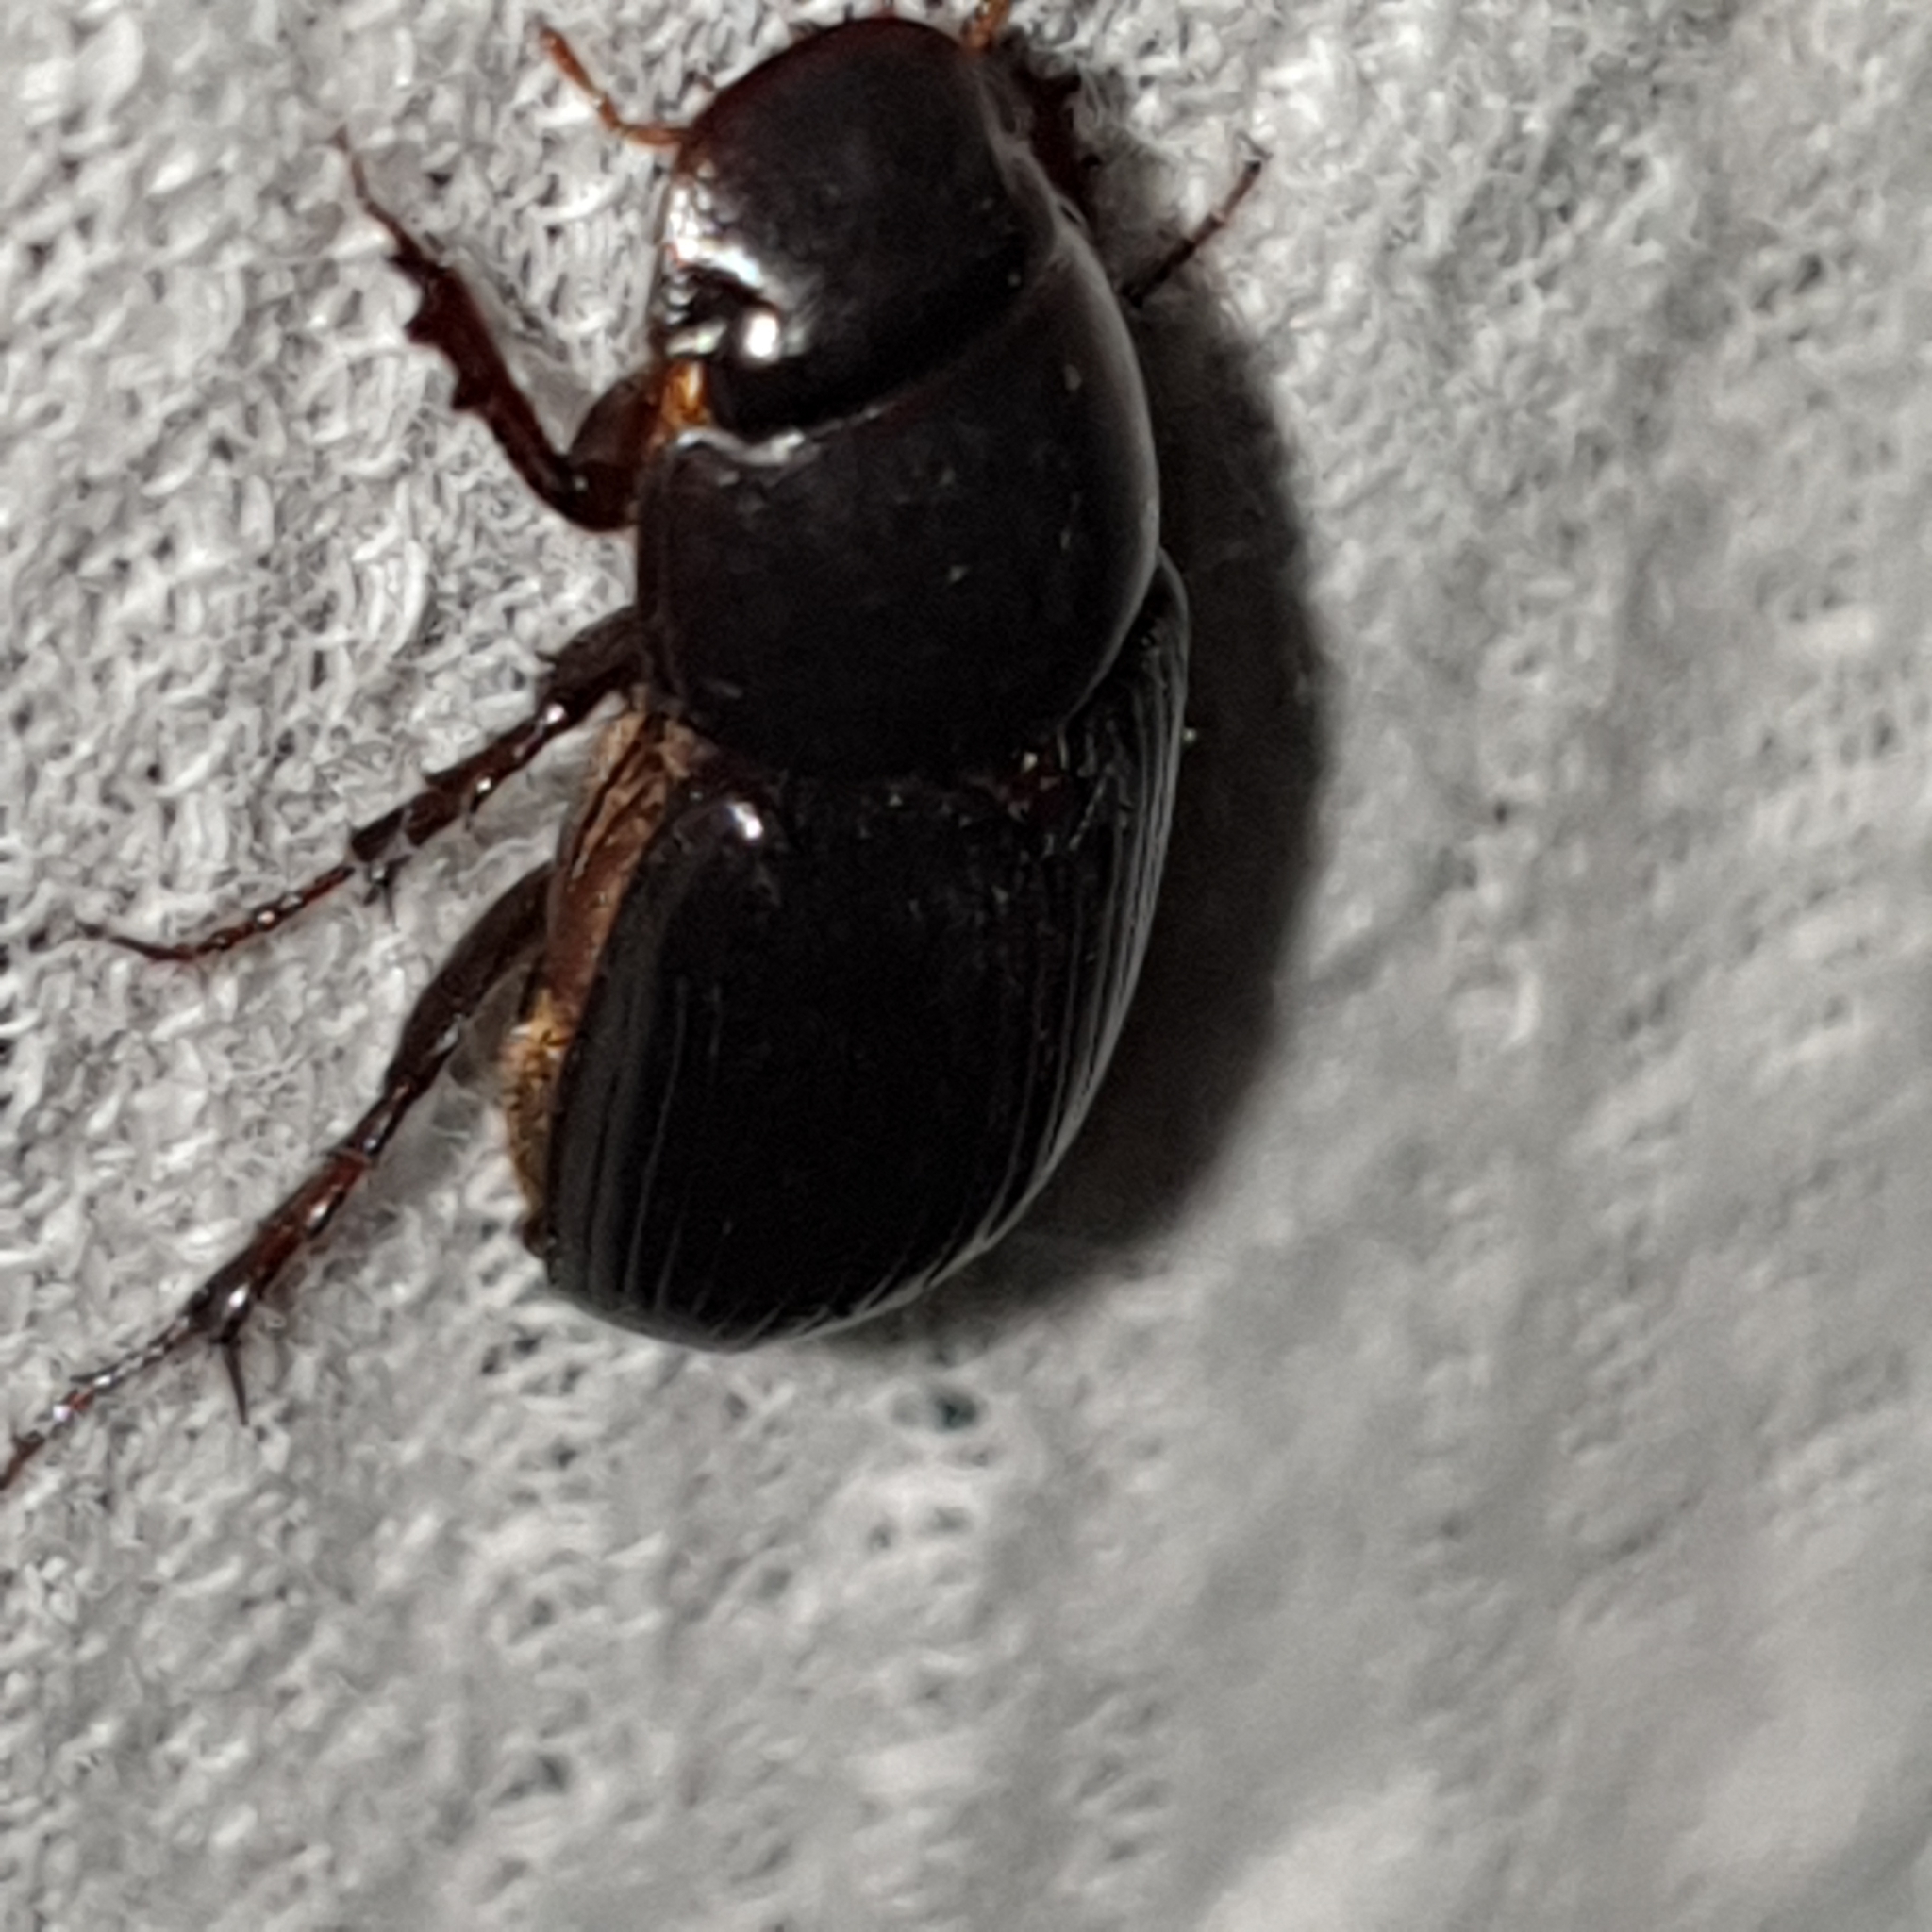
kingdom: Animalia
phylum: Arthropoda
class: Insecta
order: Coleoptera
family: Scarabaeidae
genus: Acrossus
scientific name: Acrossus rufipes
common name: Night-flying dung beetle
